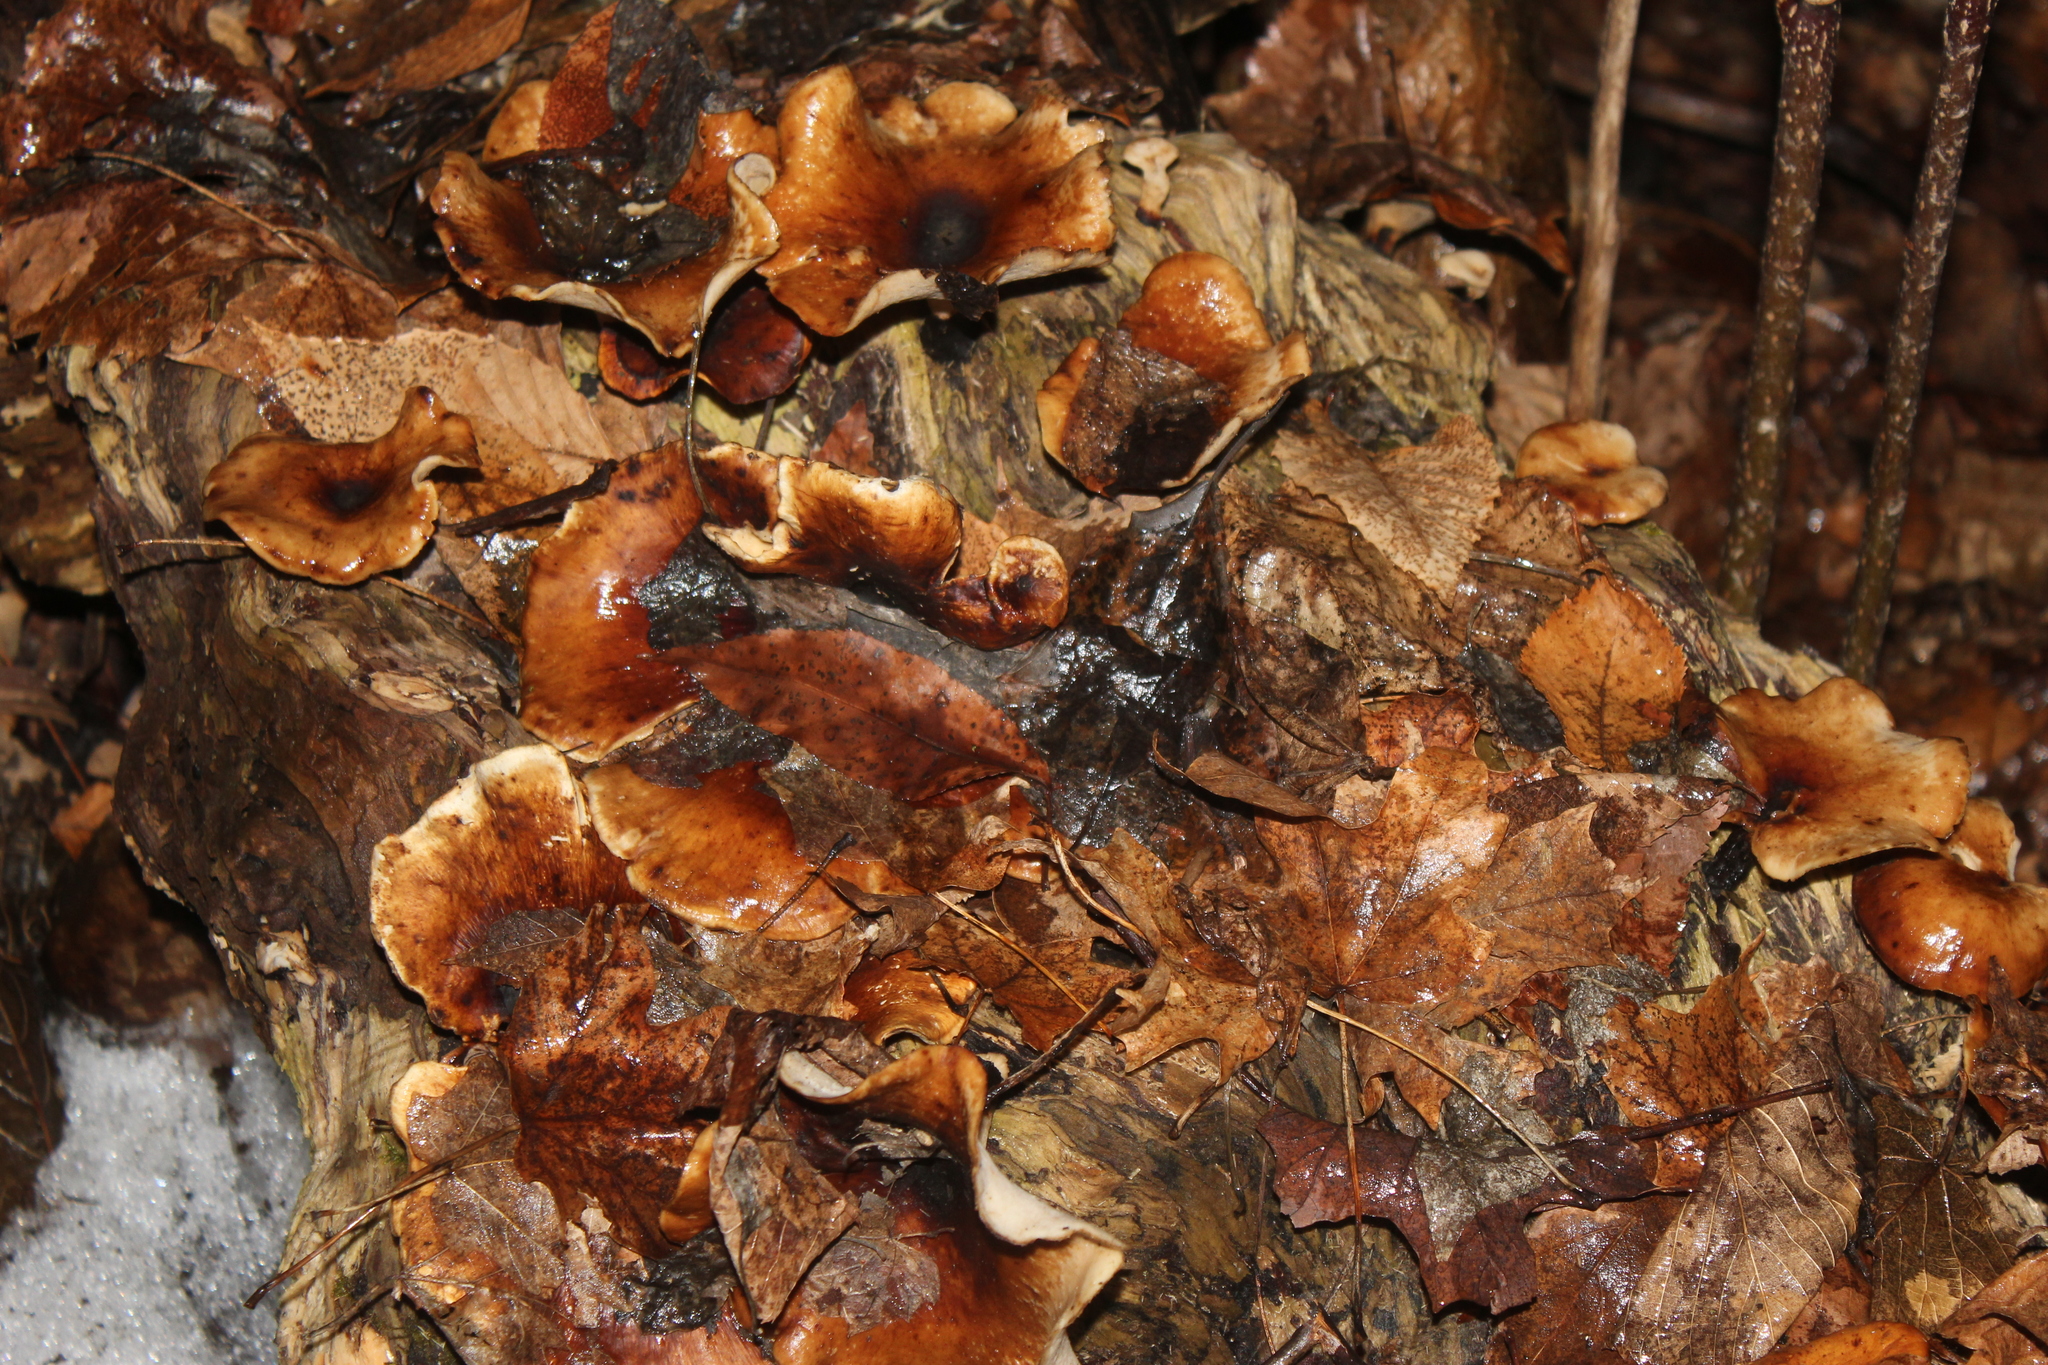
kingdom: Fungi
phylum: Basidiomycota
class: Agaricomycetes
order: Polyporales
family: Polyporaceae
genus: Picipes
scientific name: Picipes badius
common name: Bay polypore
